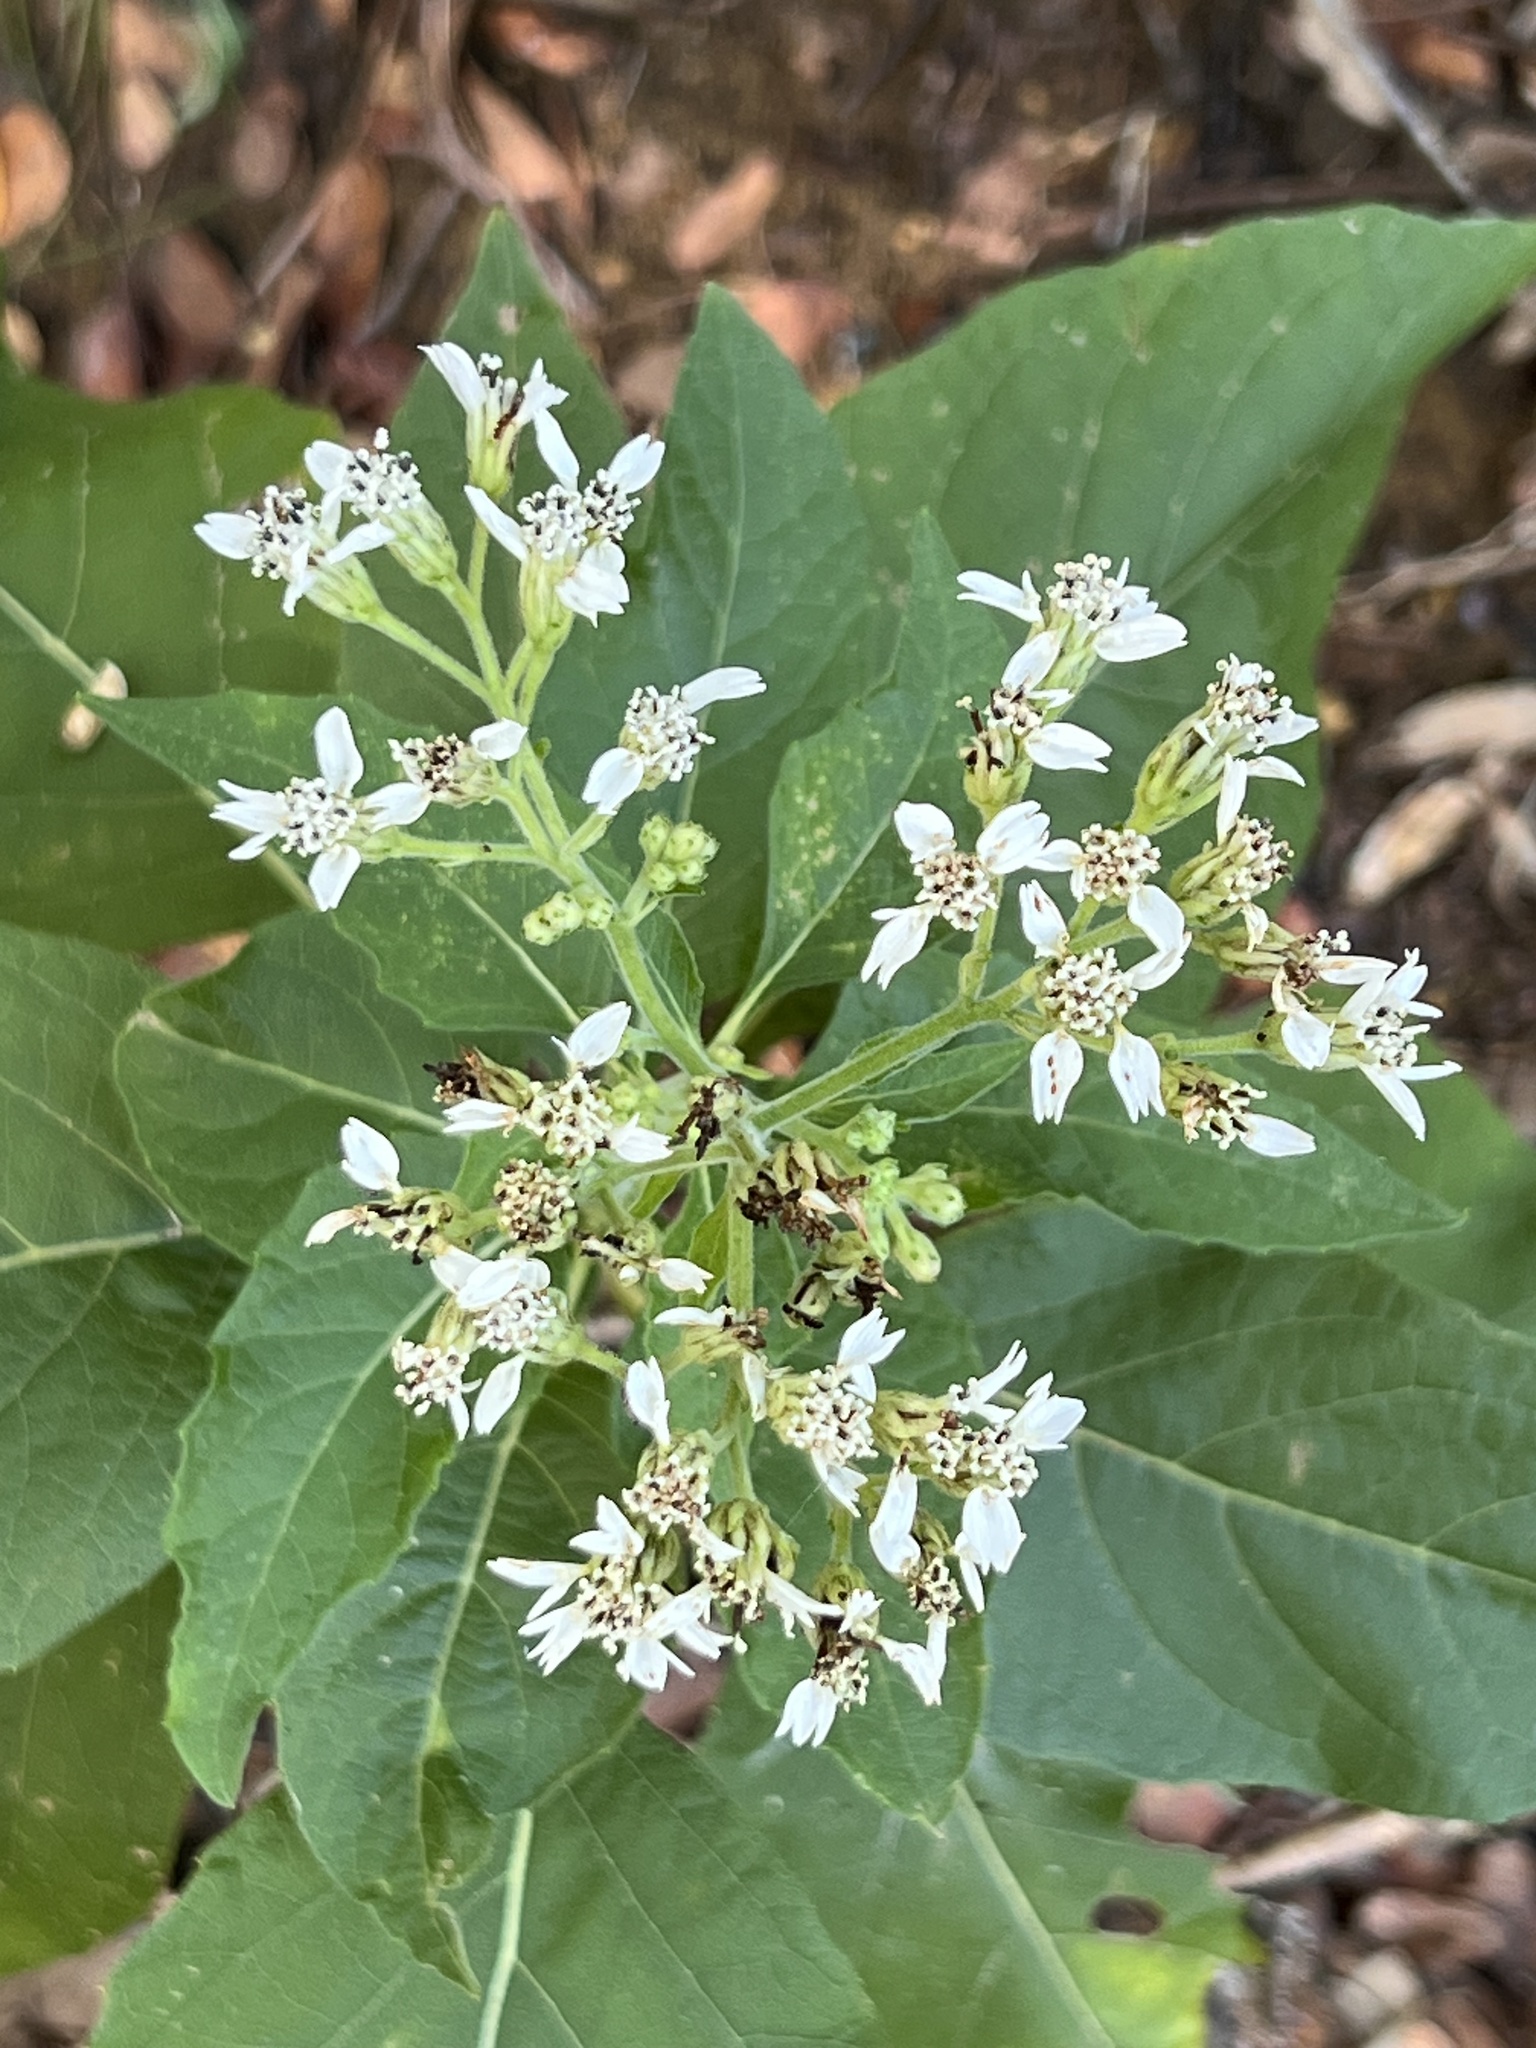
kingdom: Plantae
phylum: Tracheophyta
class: Magnoliopsida
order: Asterales
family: Asteraceae
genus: Verbesina
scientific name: Verbesina virginica
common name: Frostweed
